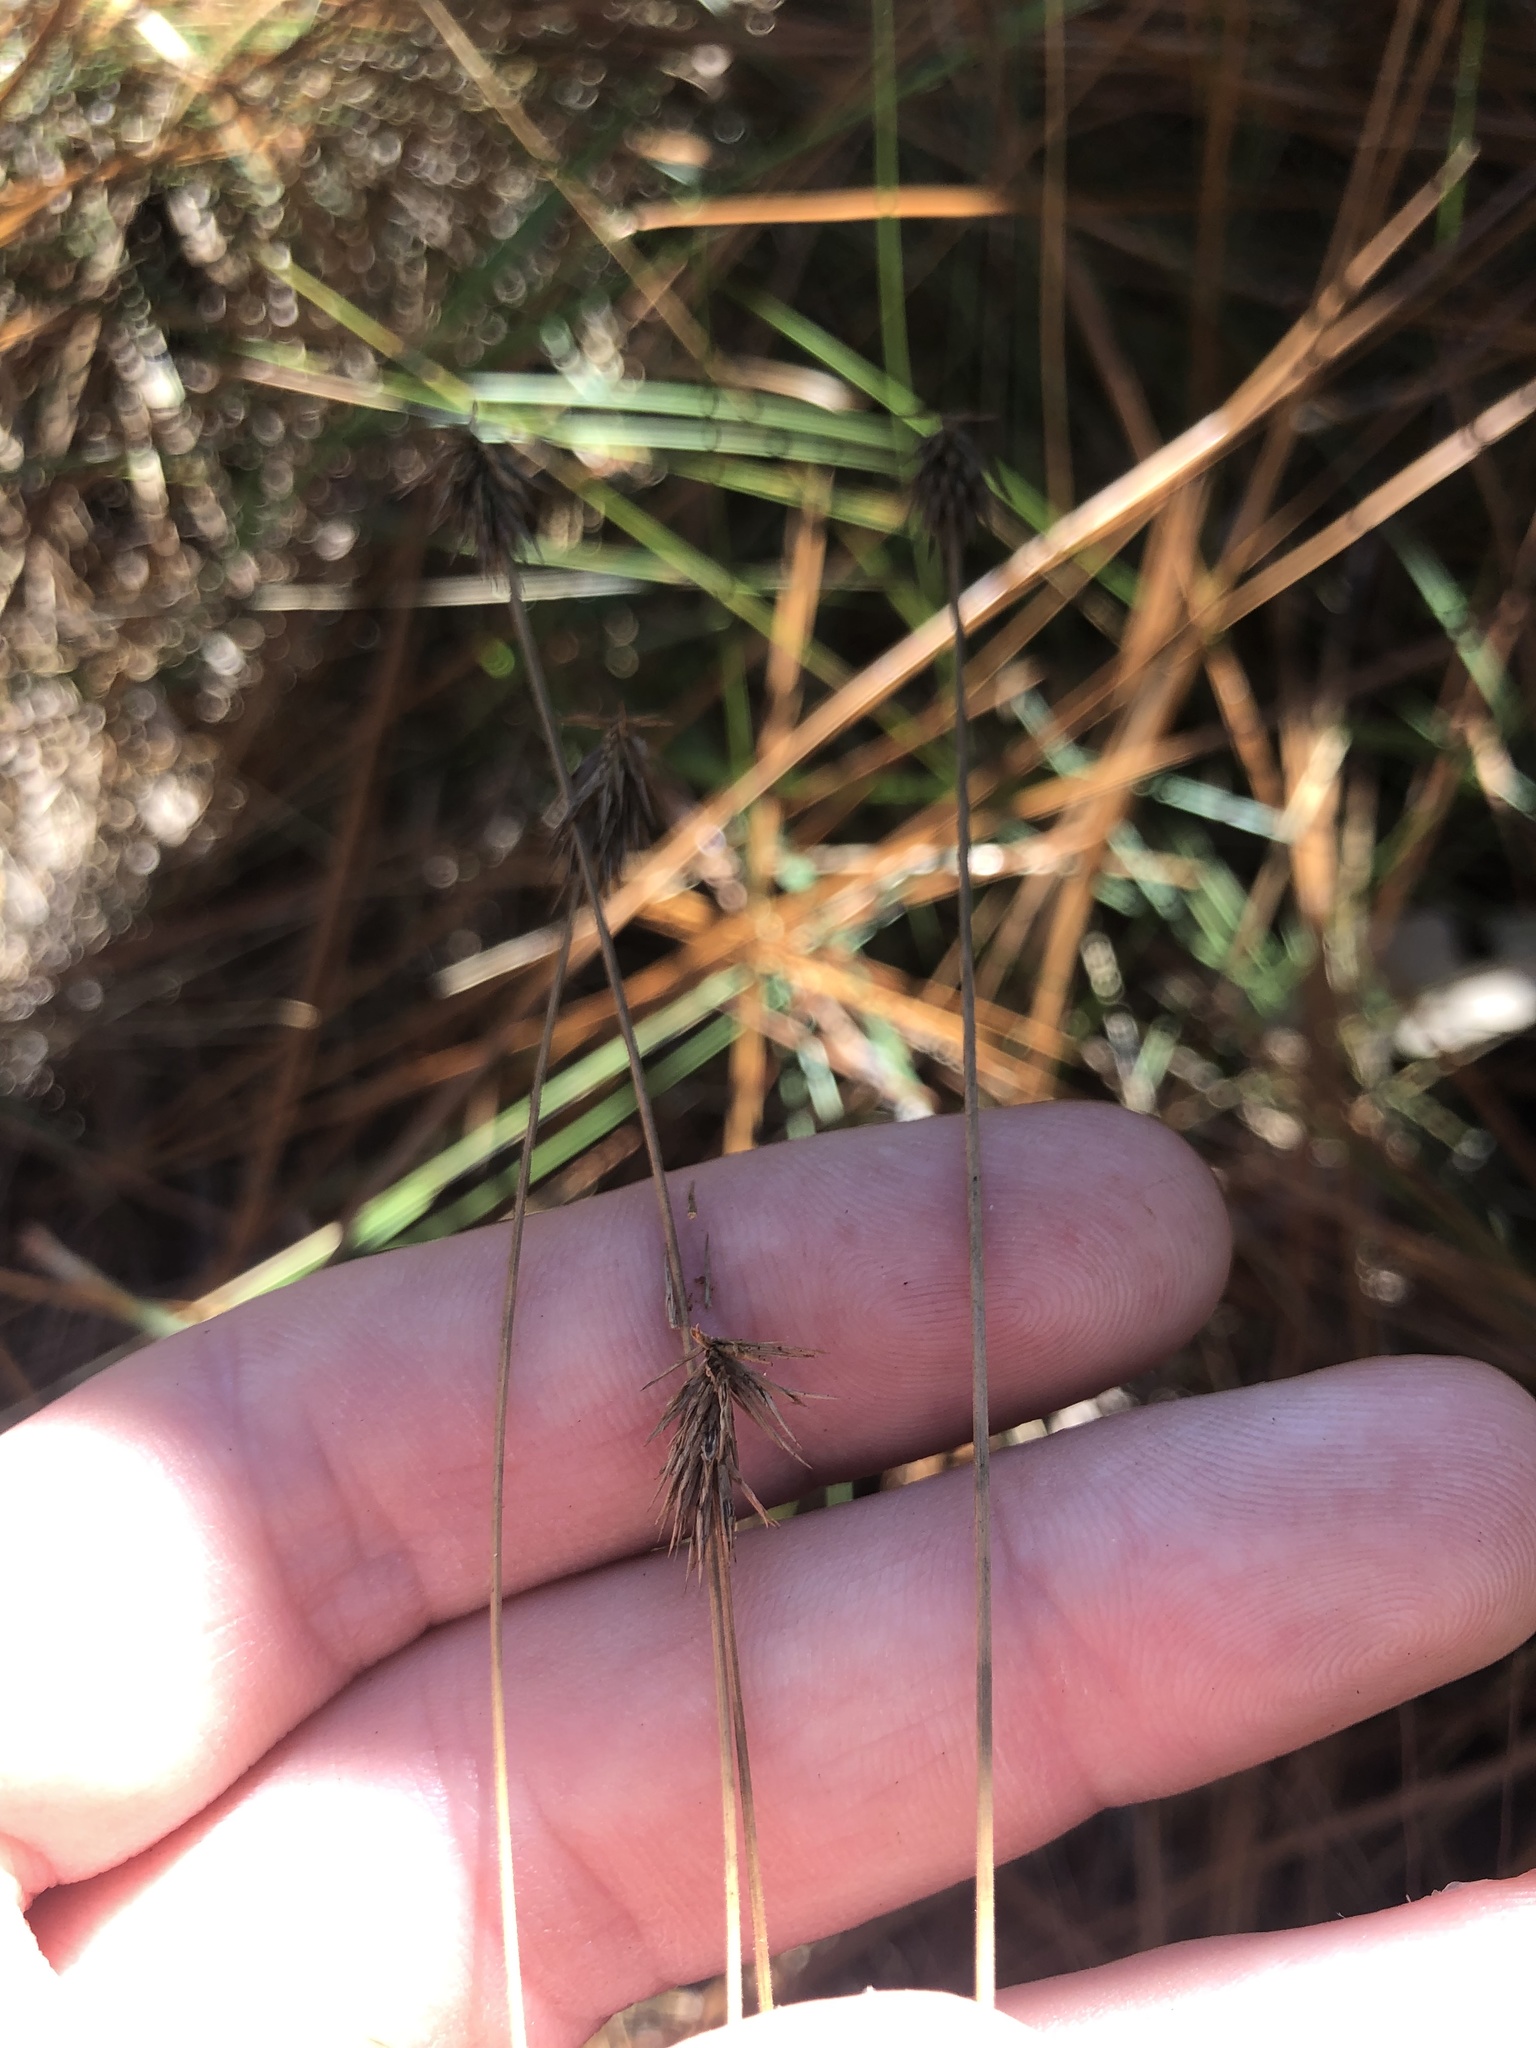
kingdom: Plantae
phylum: Tracheophyta
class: Liliopsida
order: Poales
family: Cyperaceae
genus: Cyperus
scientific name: Cyperus plukenetii
